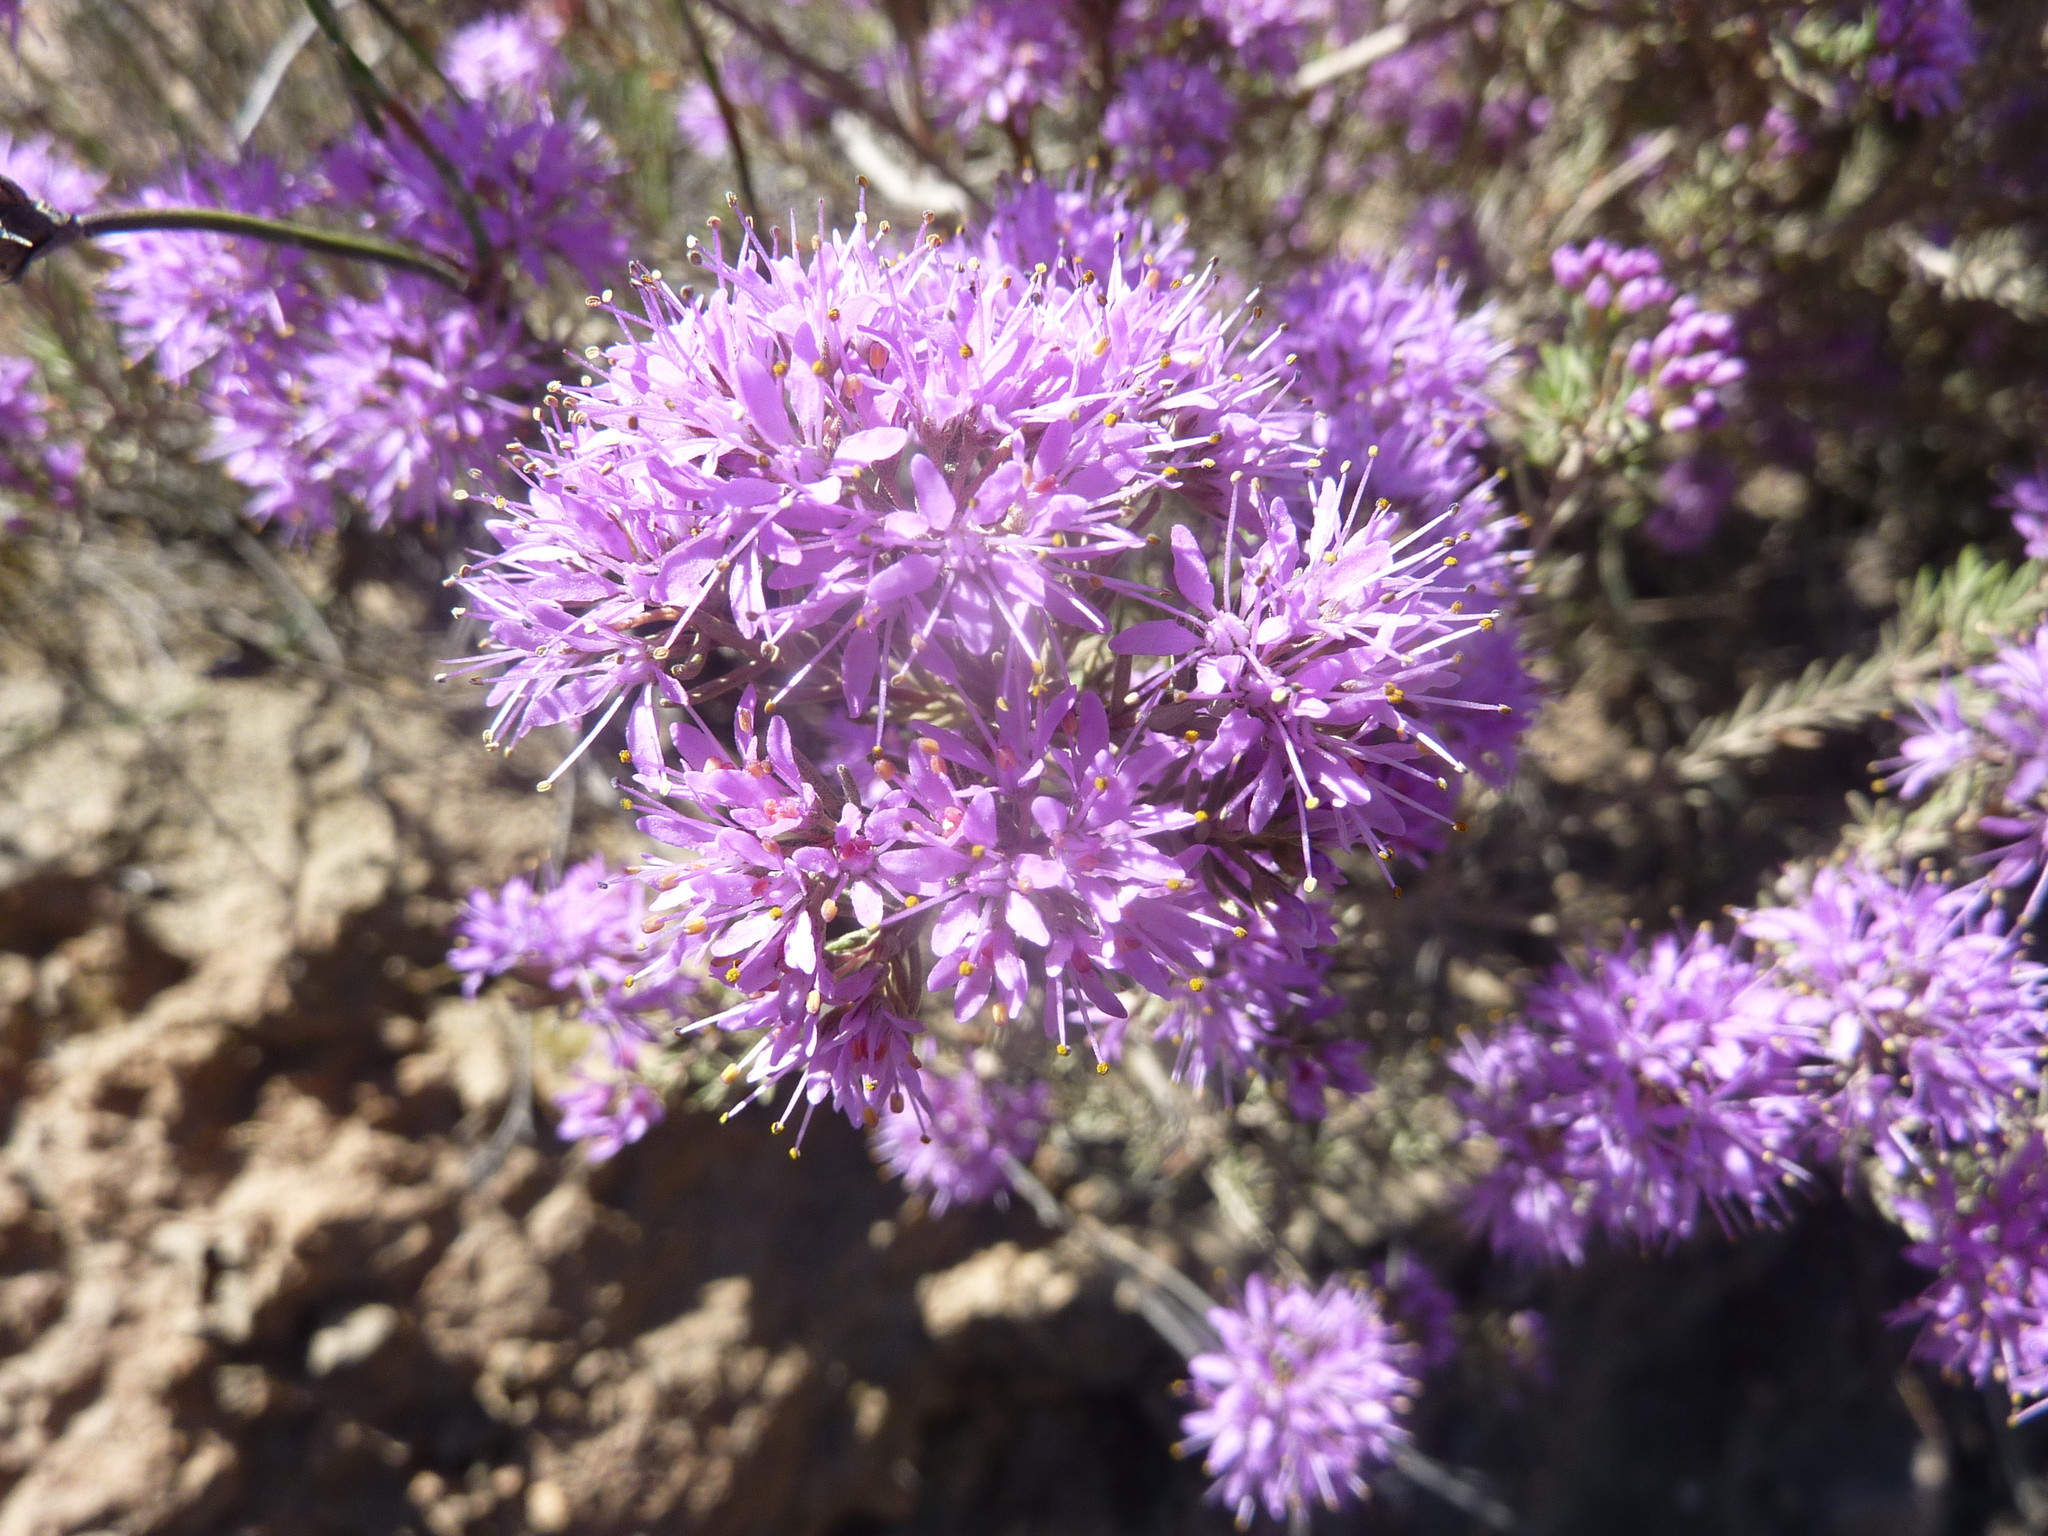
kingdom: Plantae
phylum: Tracheophyta
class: Magnoliopsida
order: Sapindales
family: Rutaceae
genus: Agathosma
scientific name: Agathosma
